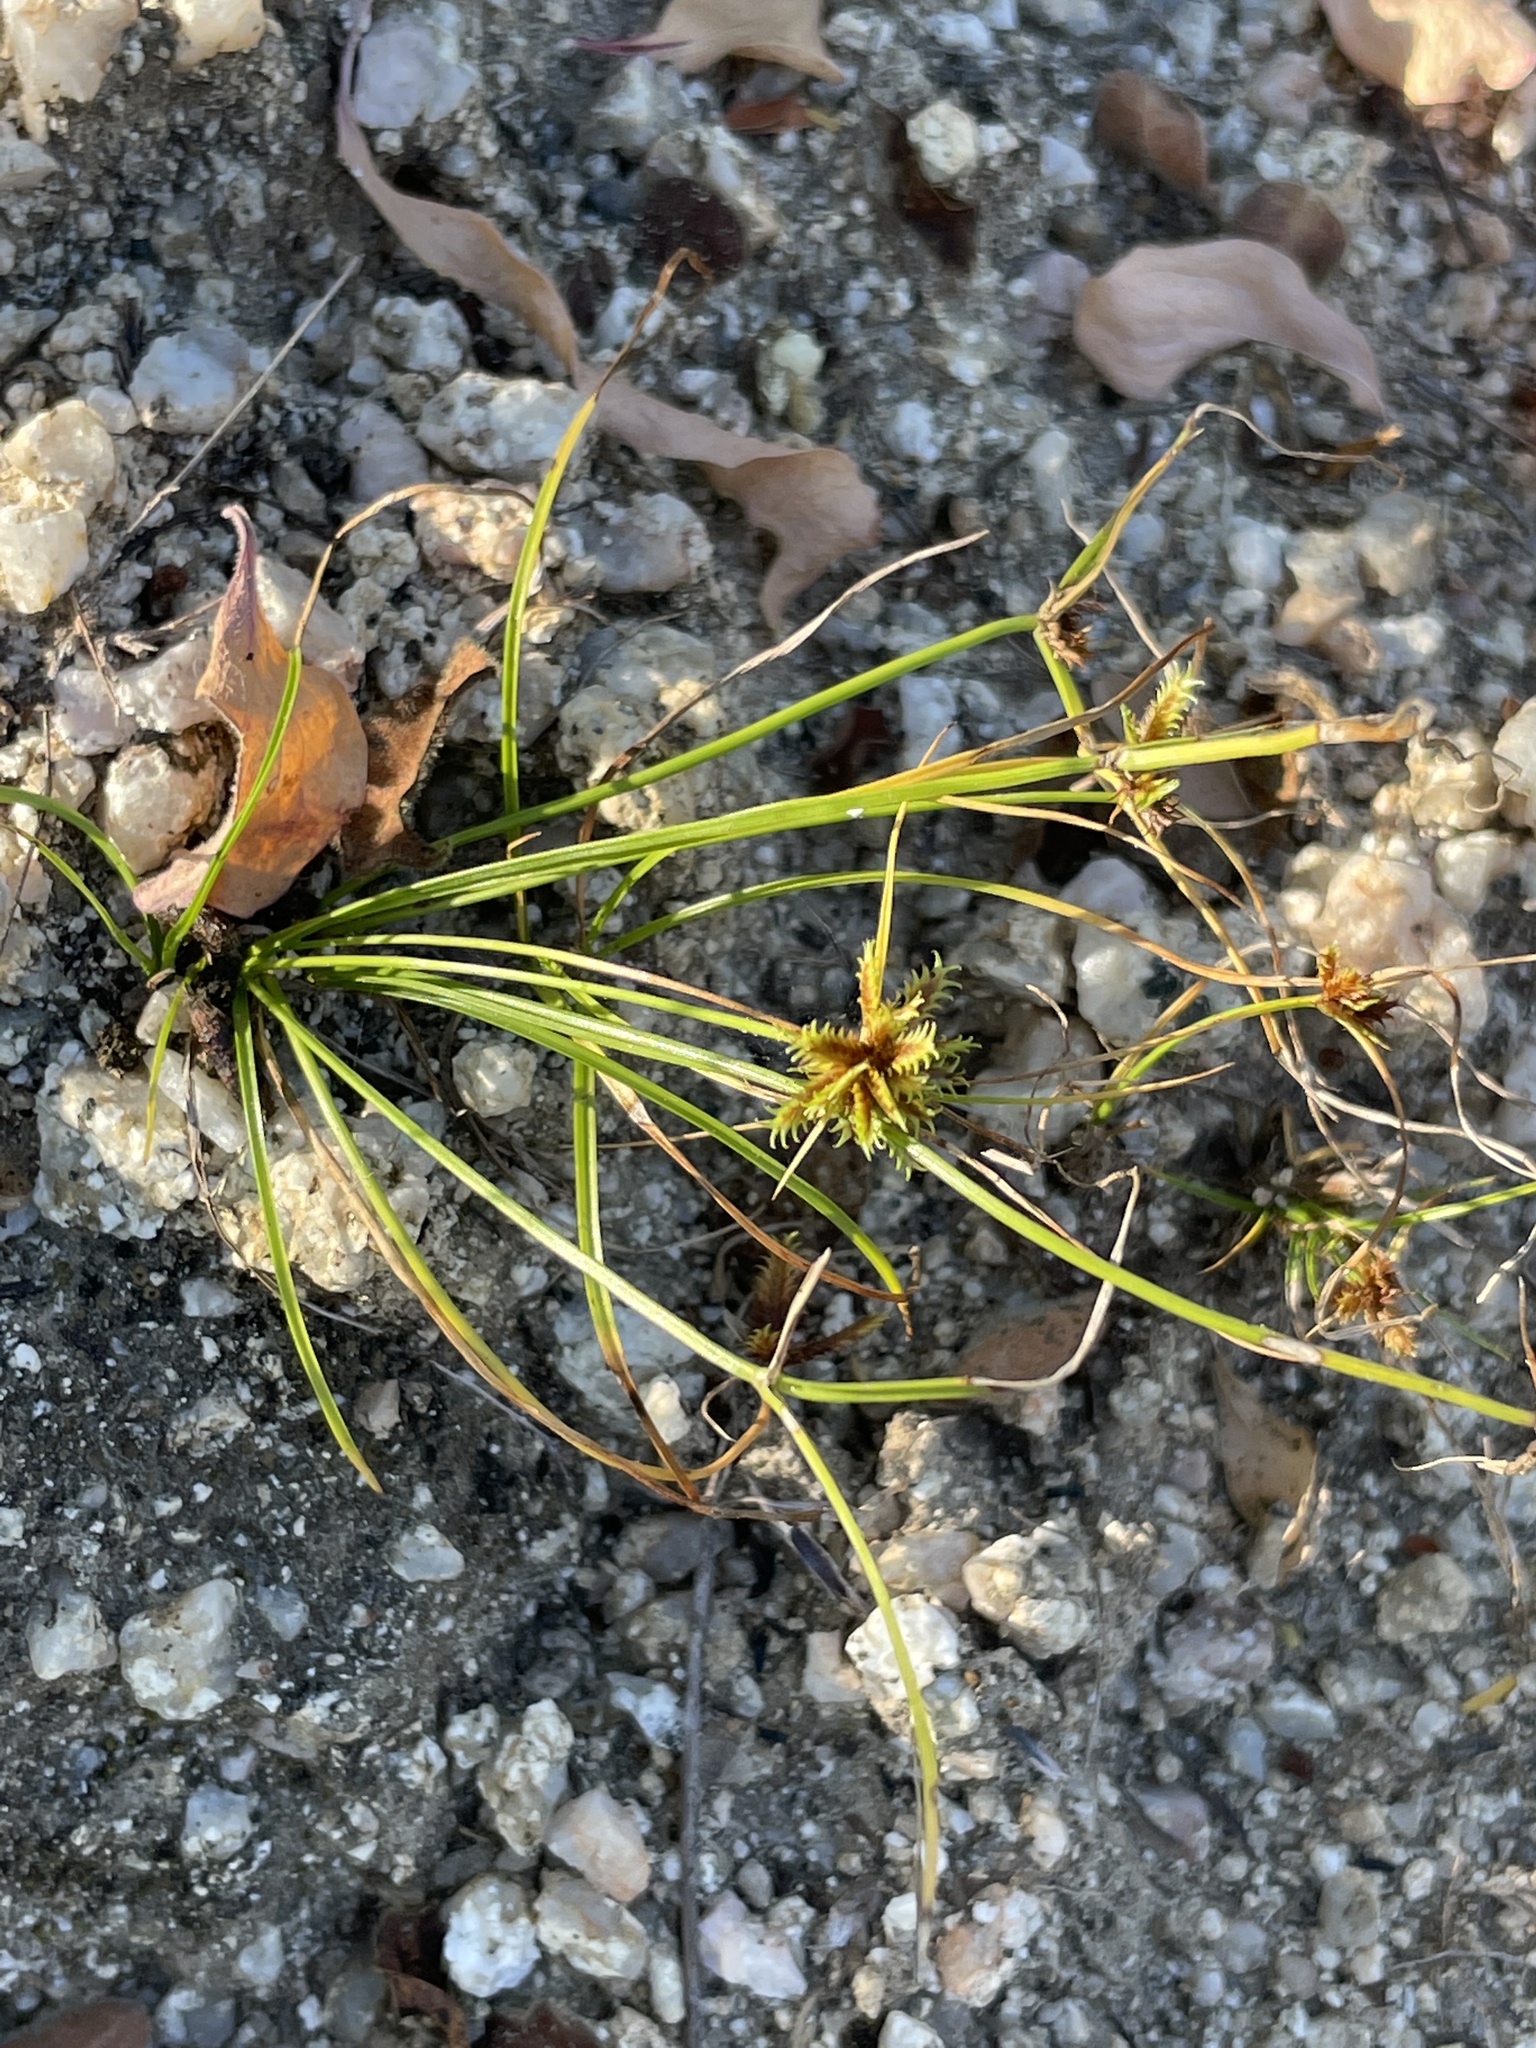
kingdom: Plantae
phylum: Tracheophyta
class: Liliopsida
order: Poales
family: Cyperaceae
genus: Cyperus
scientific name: Cyperus perennis
